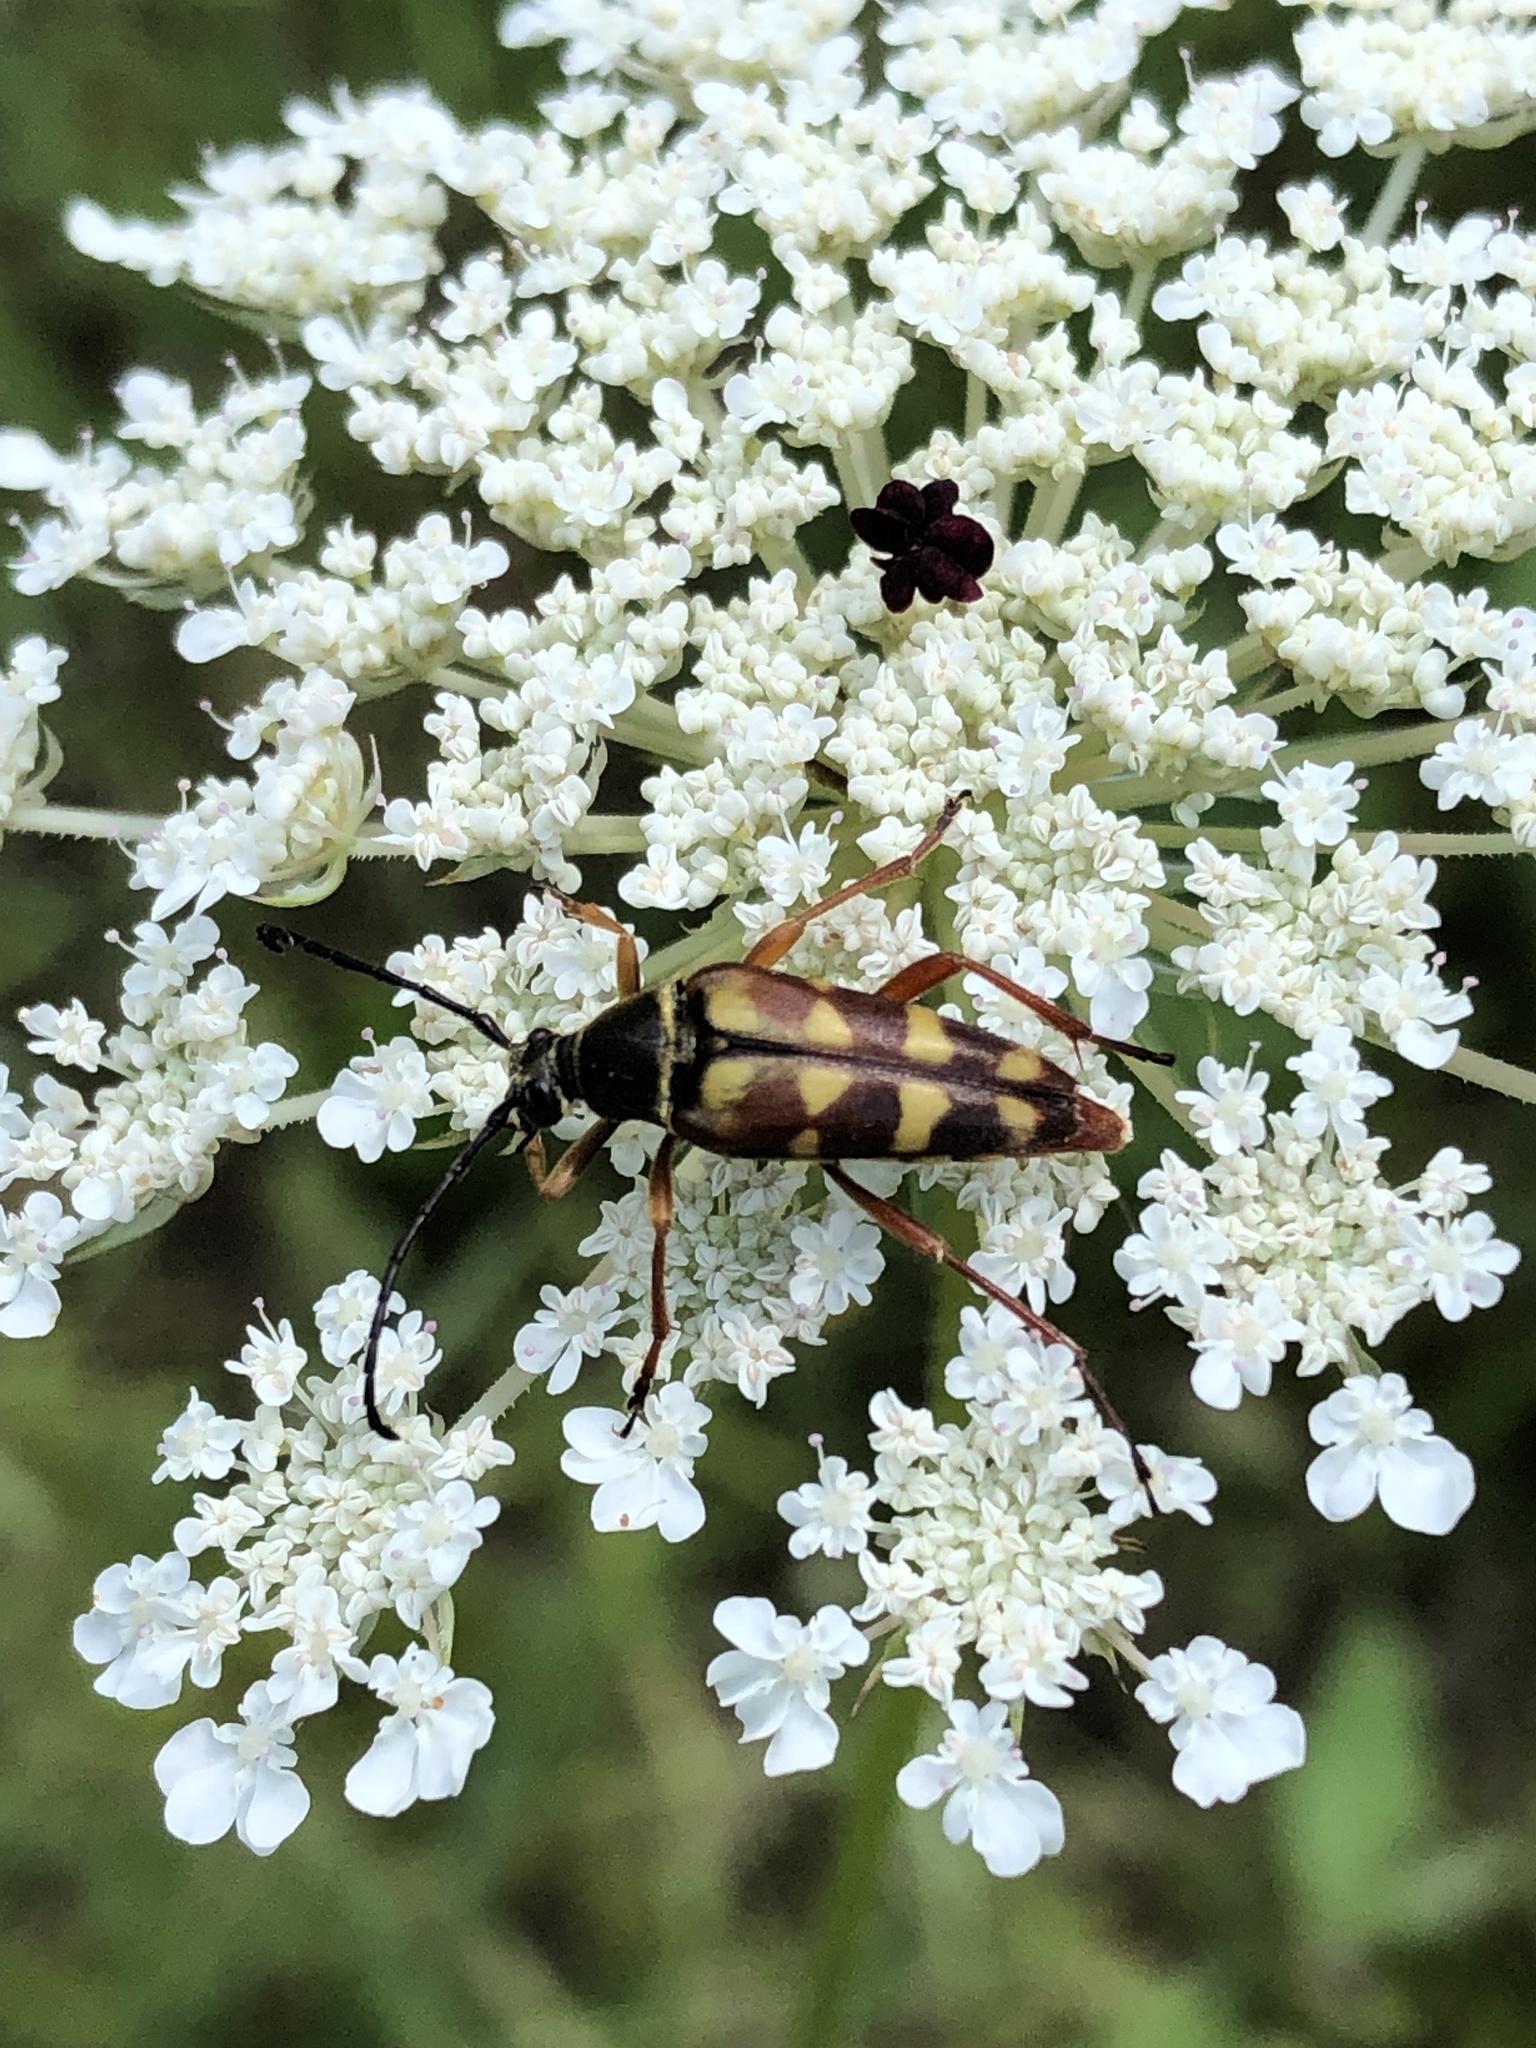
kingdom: Animalia
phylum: Arthropoda
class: Insecta
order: Coleoptera
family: Cerambycidae
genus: Typocerus
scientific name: Typocerus velutinus
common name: Banded longhorn beetle
